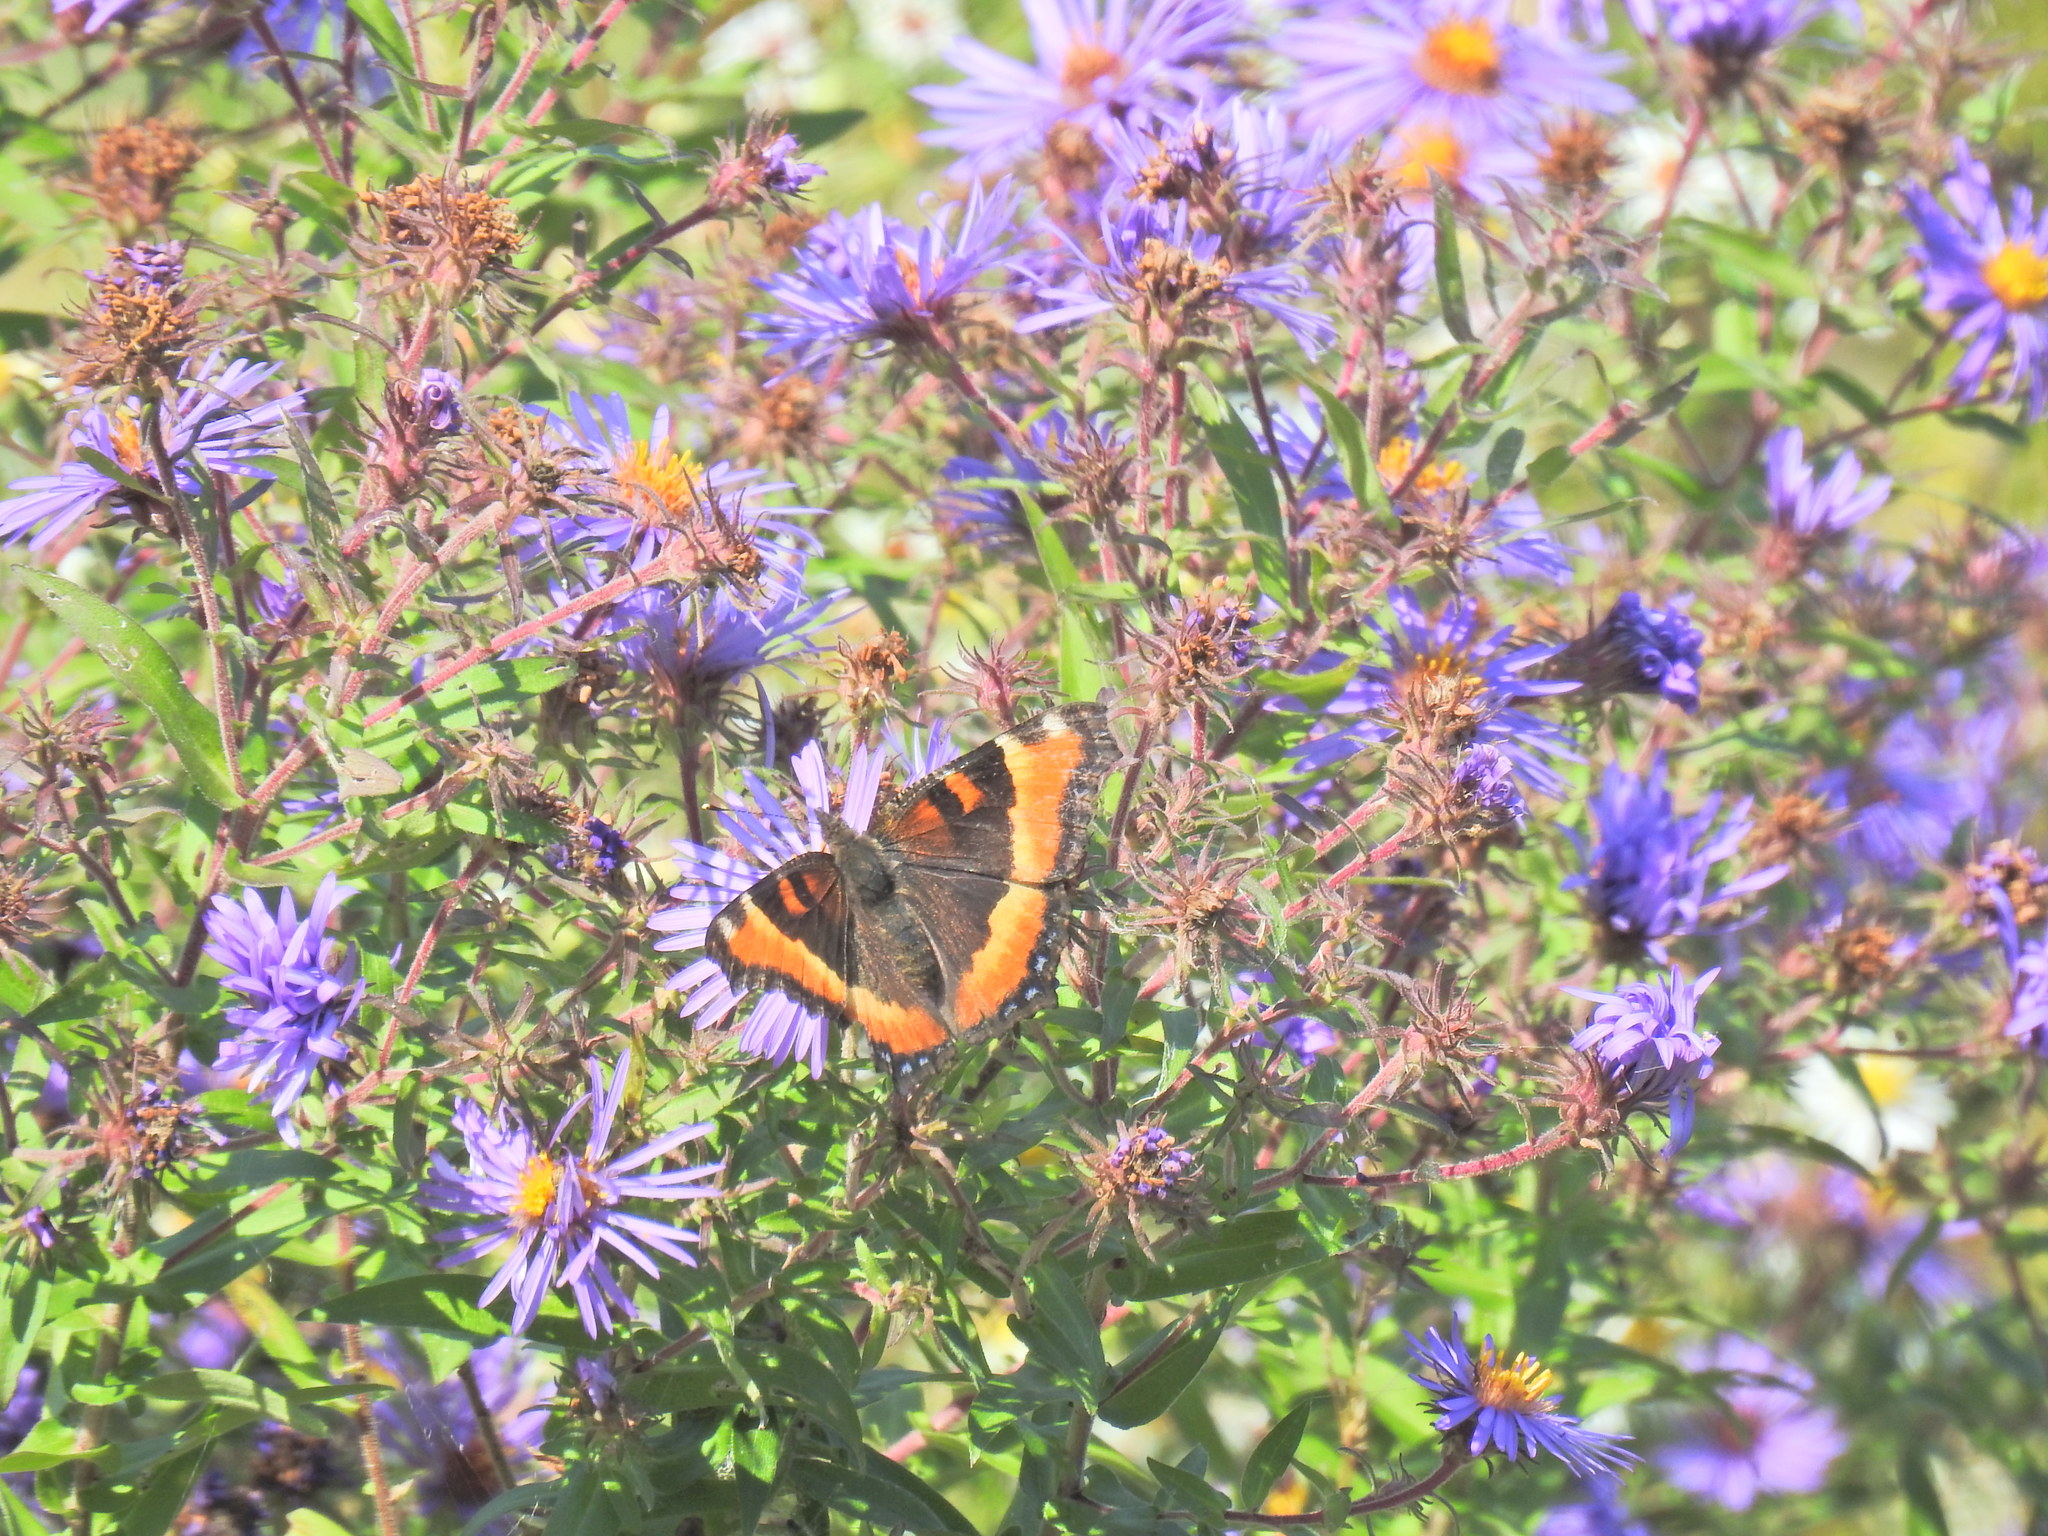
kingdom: Animalia
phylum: Arthropoda
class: Insecta
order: Lepidoptera
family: Nymphalidae
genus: Aglais
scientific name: Aglais milberti
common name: Milbert's tortoiseshell
